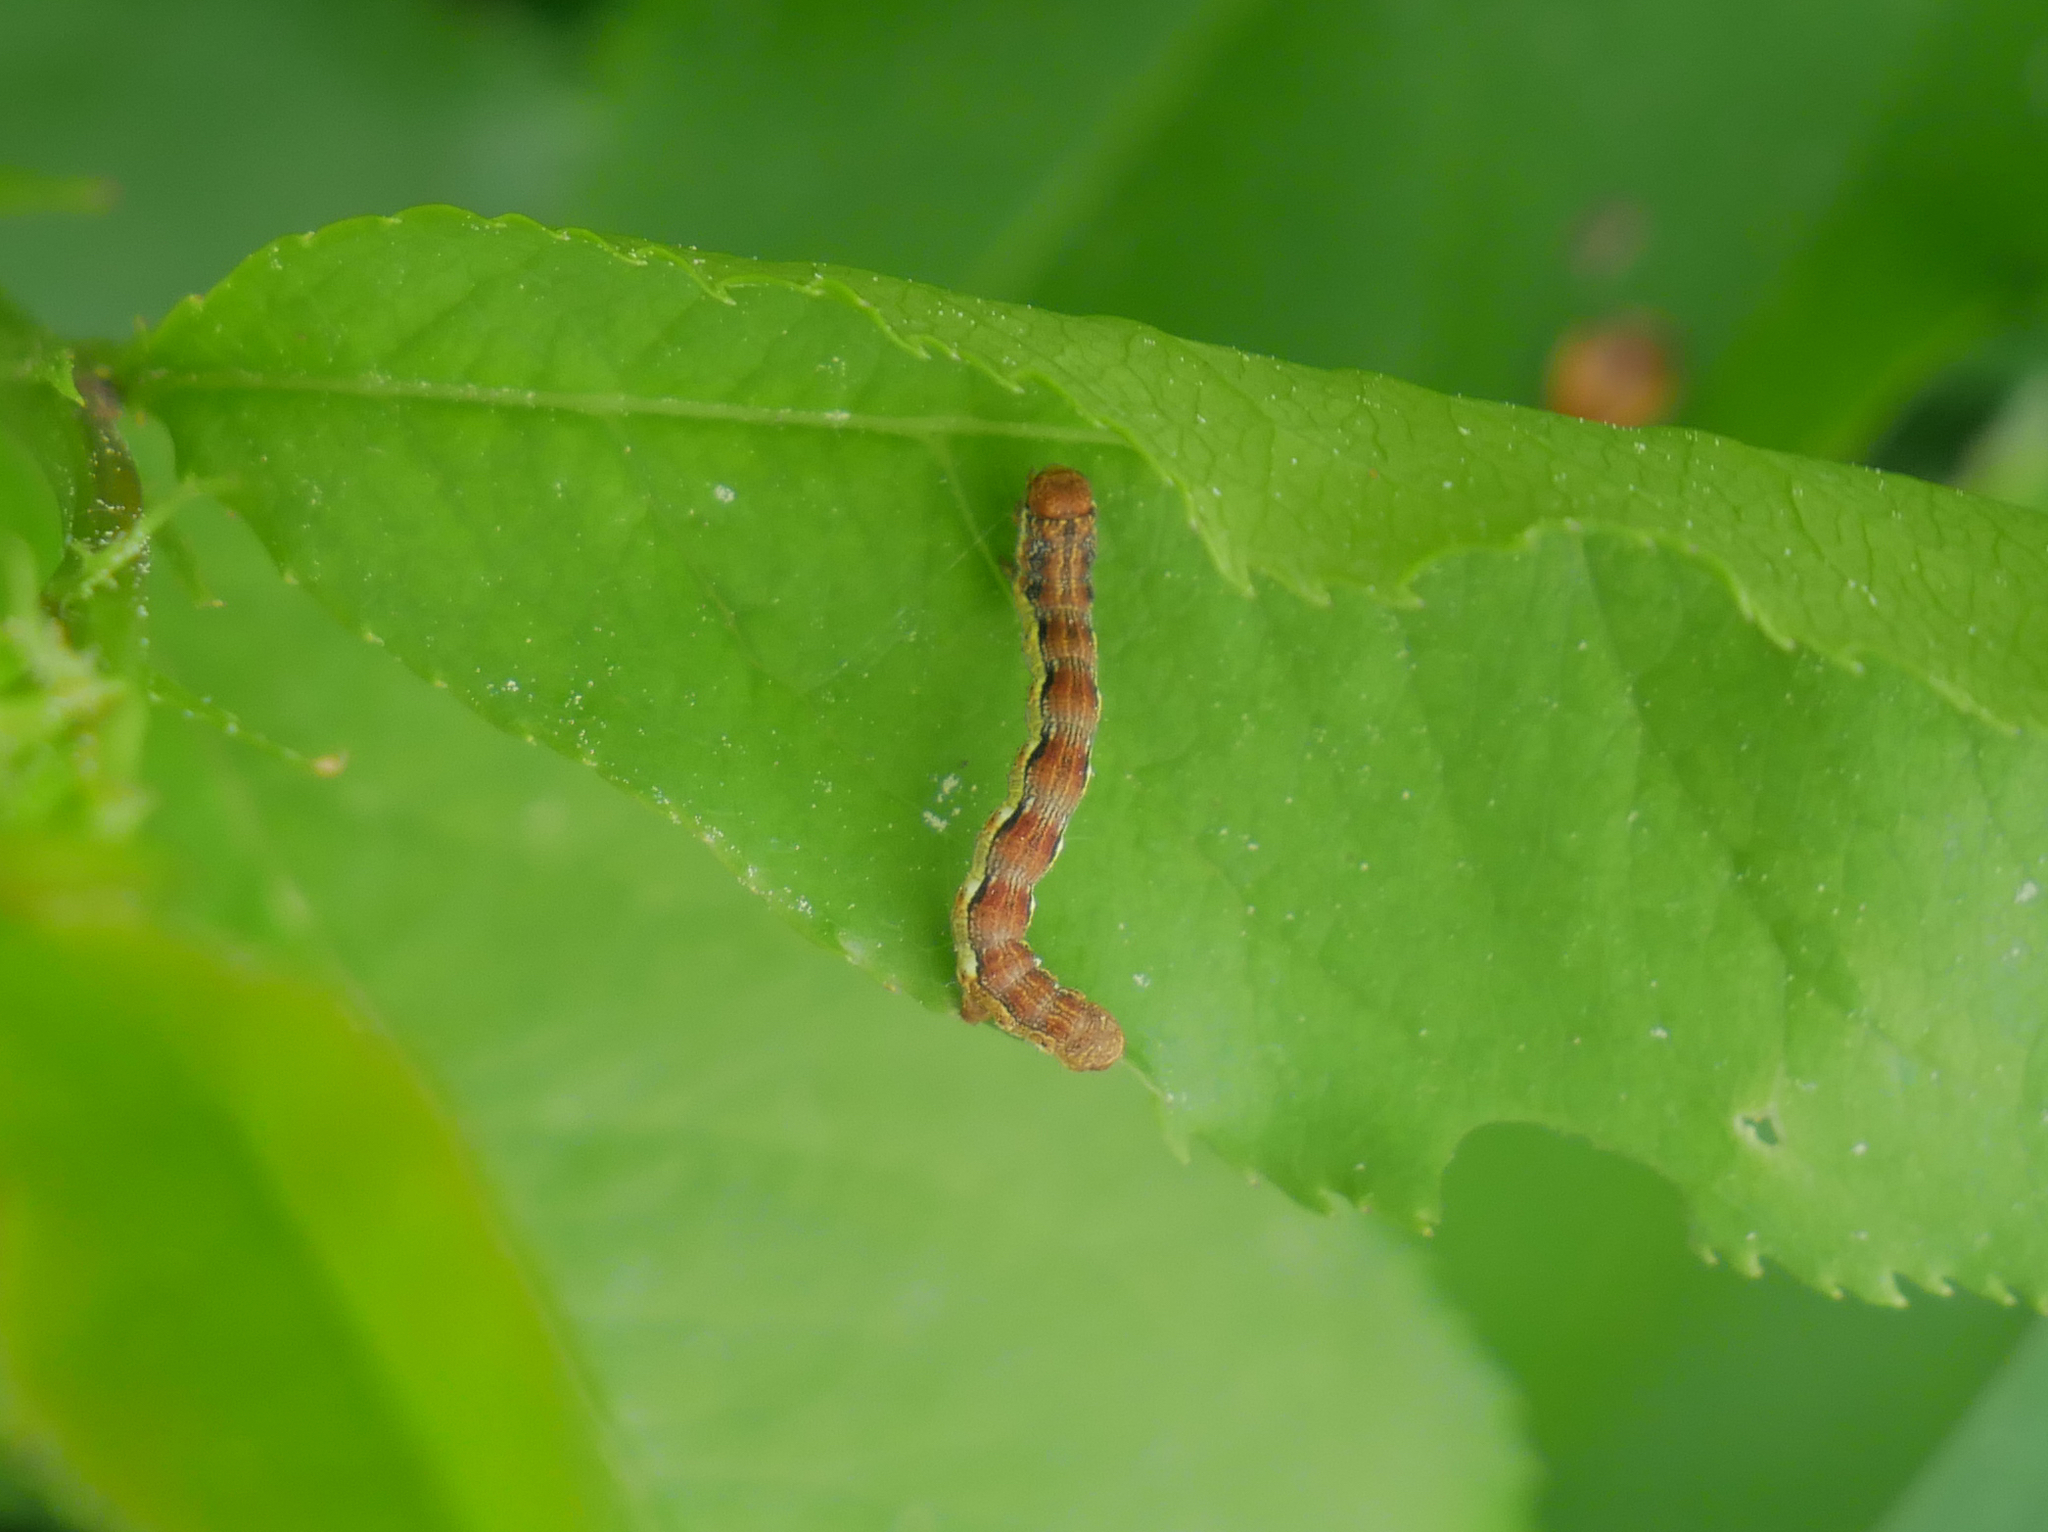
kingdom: Animalia
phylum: Arthropoda
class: Insecta
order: Lepidoptera
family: Geometridae
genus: Erannis
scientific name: Erannis defoliaria
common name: Mottled umber
